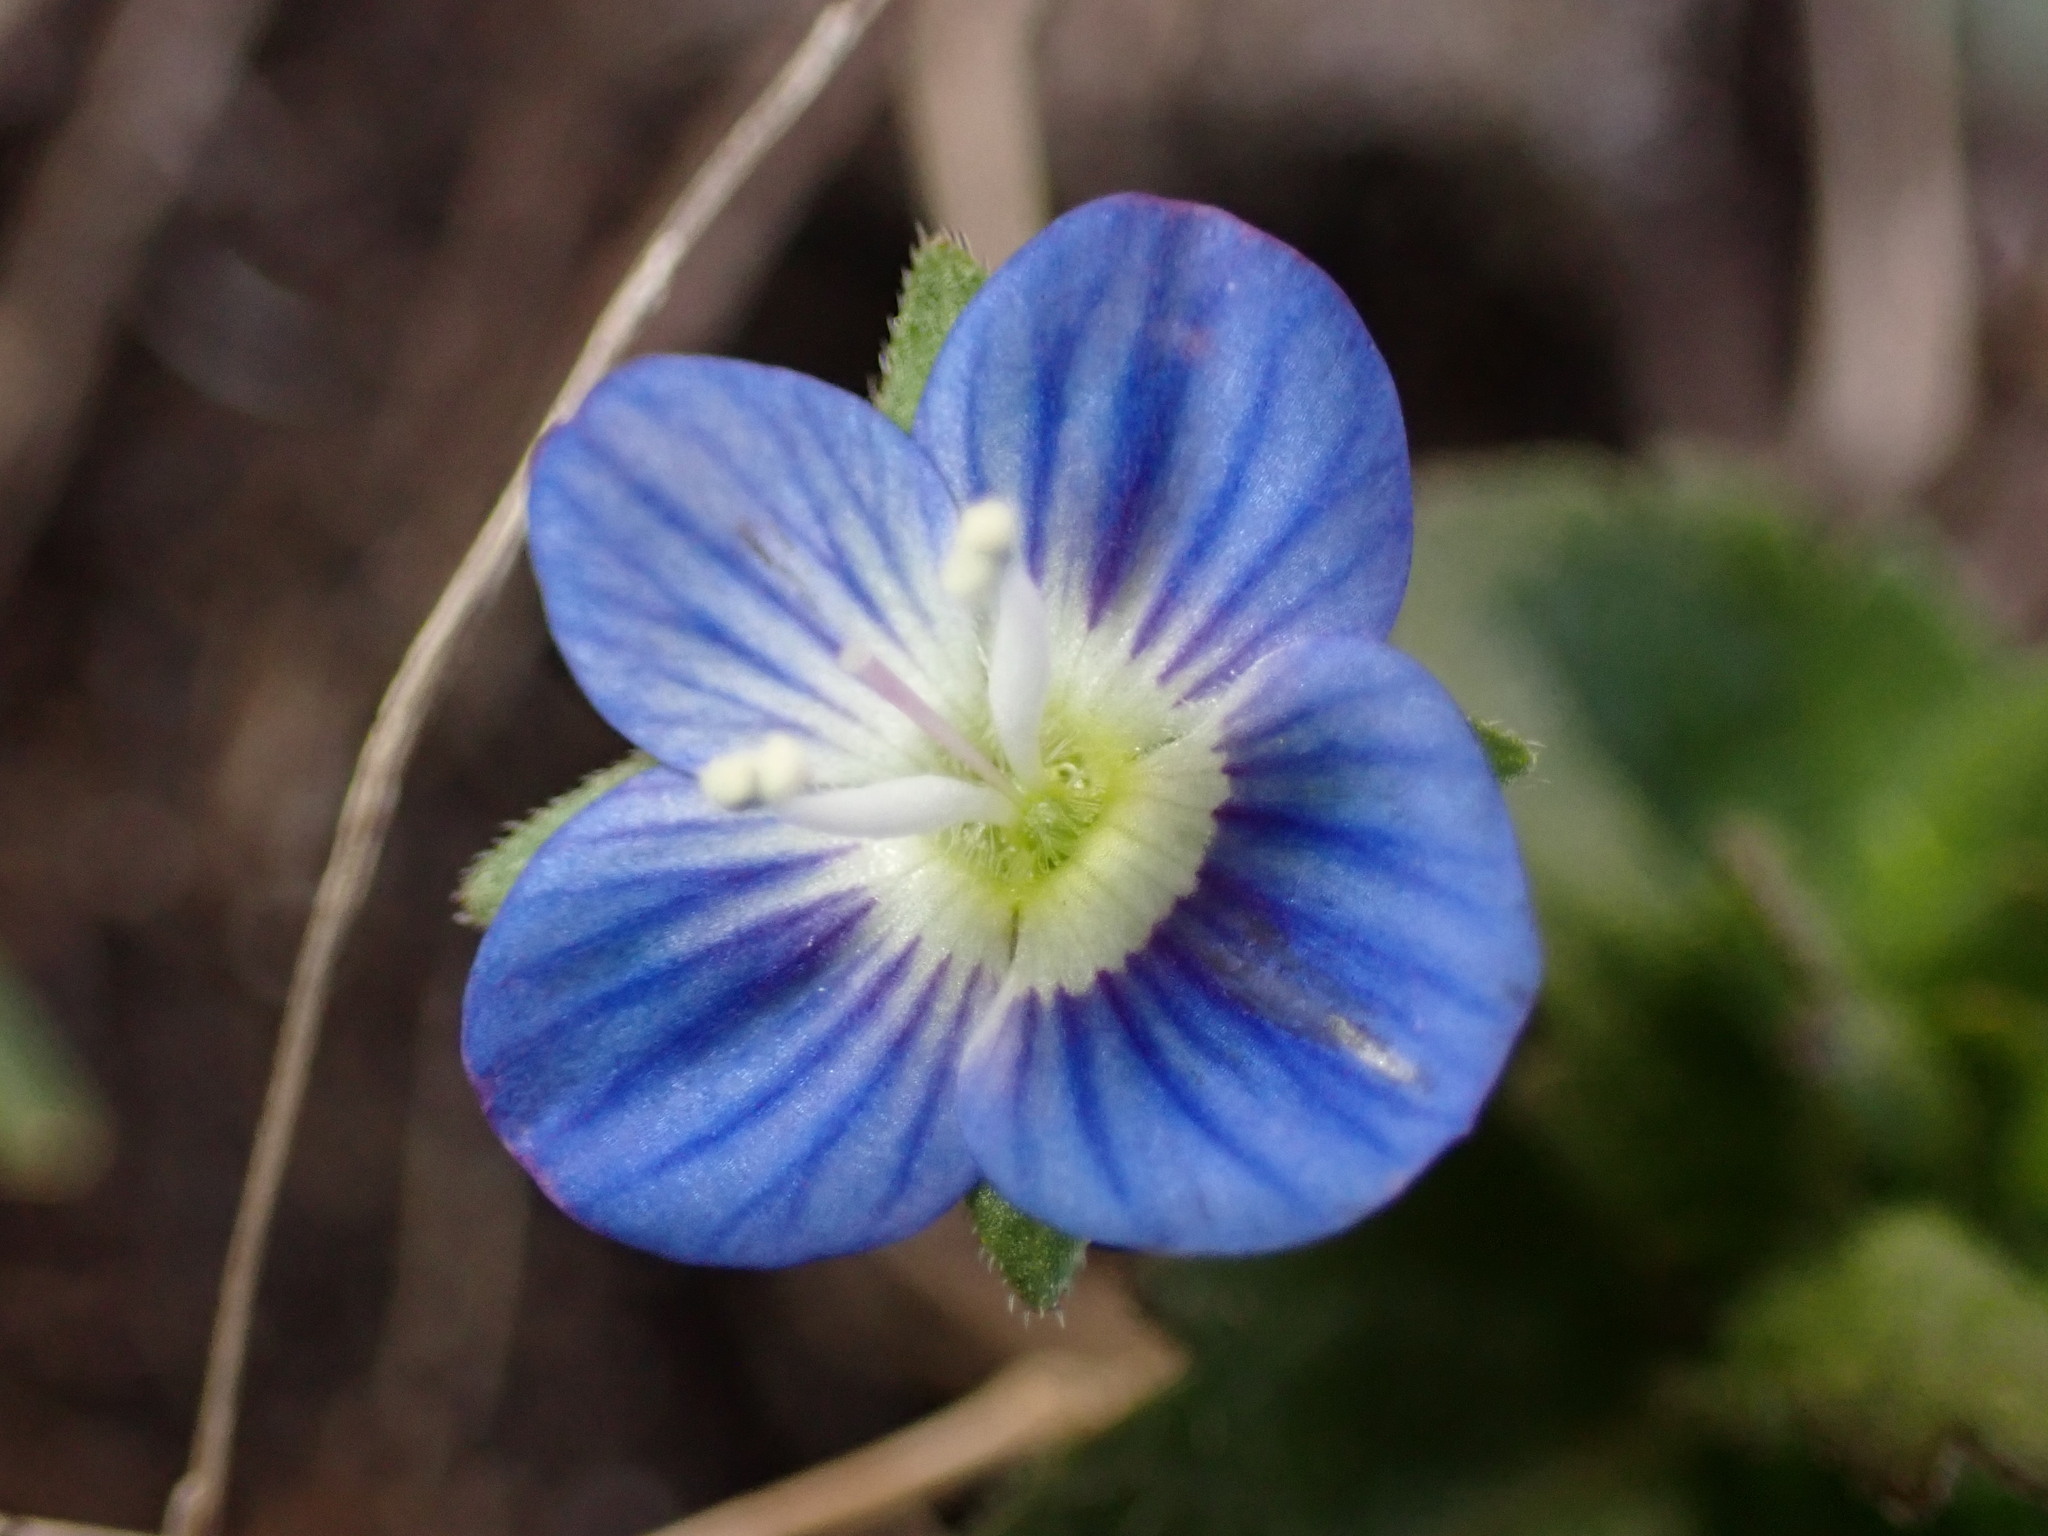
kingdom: Plantae
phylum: Tracheophyta
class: Magnoliopsida
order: Lamiales
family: Plantaginaceae
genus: Veronica
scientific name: Veronica persica
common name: Common field-speedwell
